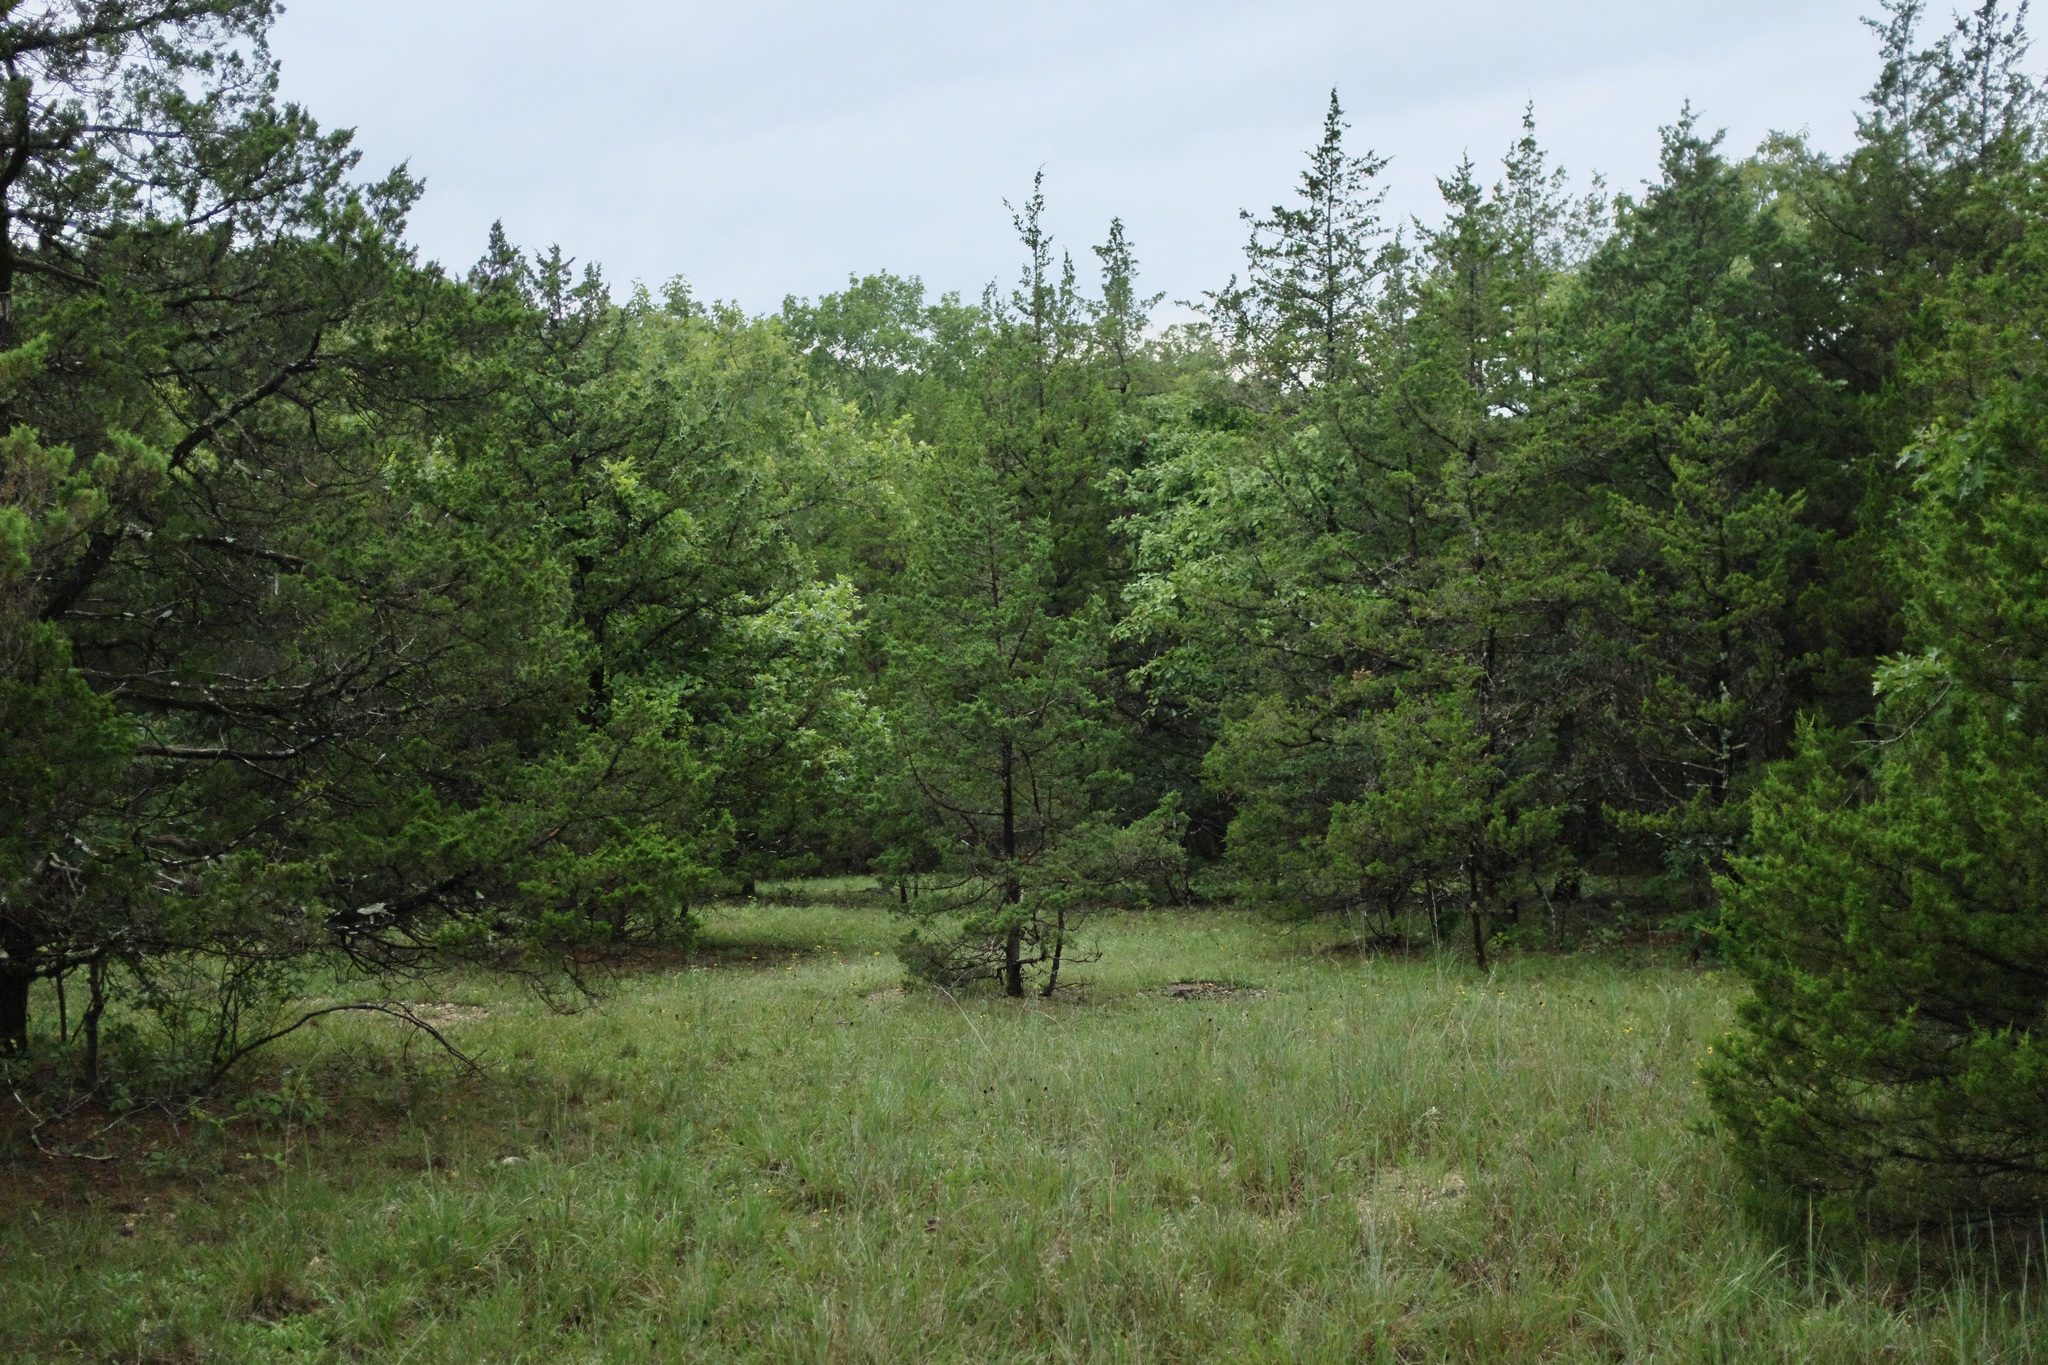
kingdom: Plantae
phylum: Tracheophyta
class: Pinopsida
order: Pinales
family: Cupressaceae
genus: Juniperus
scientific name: Juniperus virginiana
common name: Red juniper
